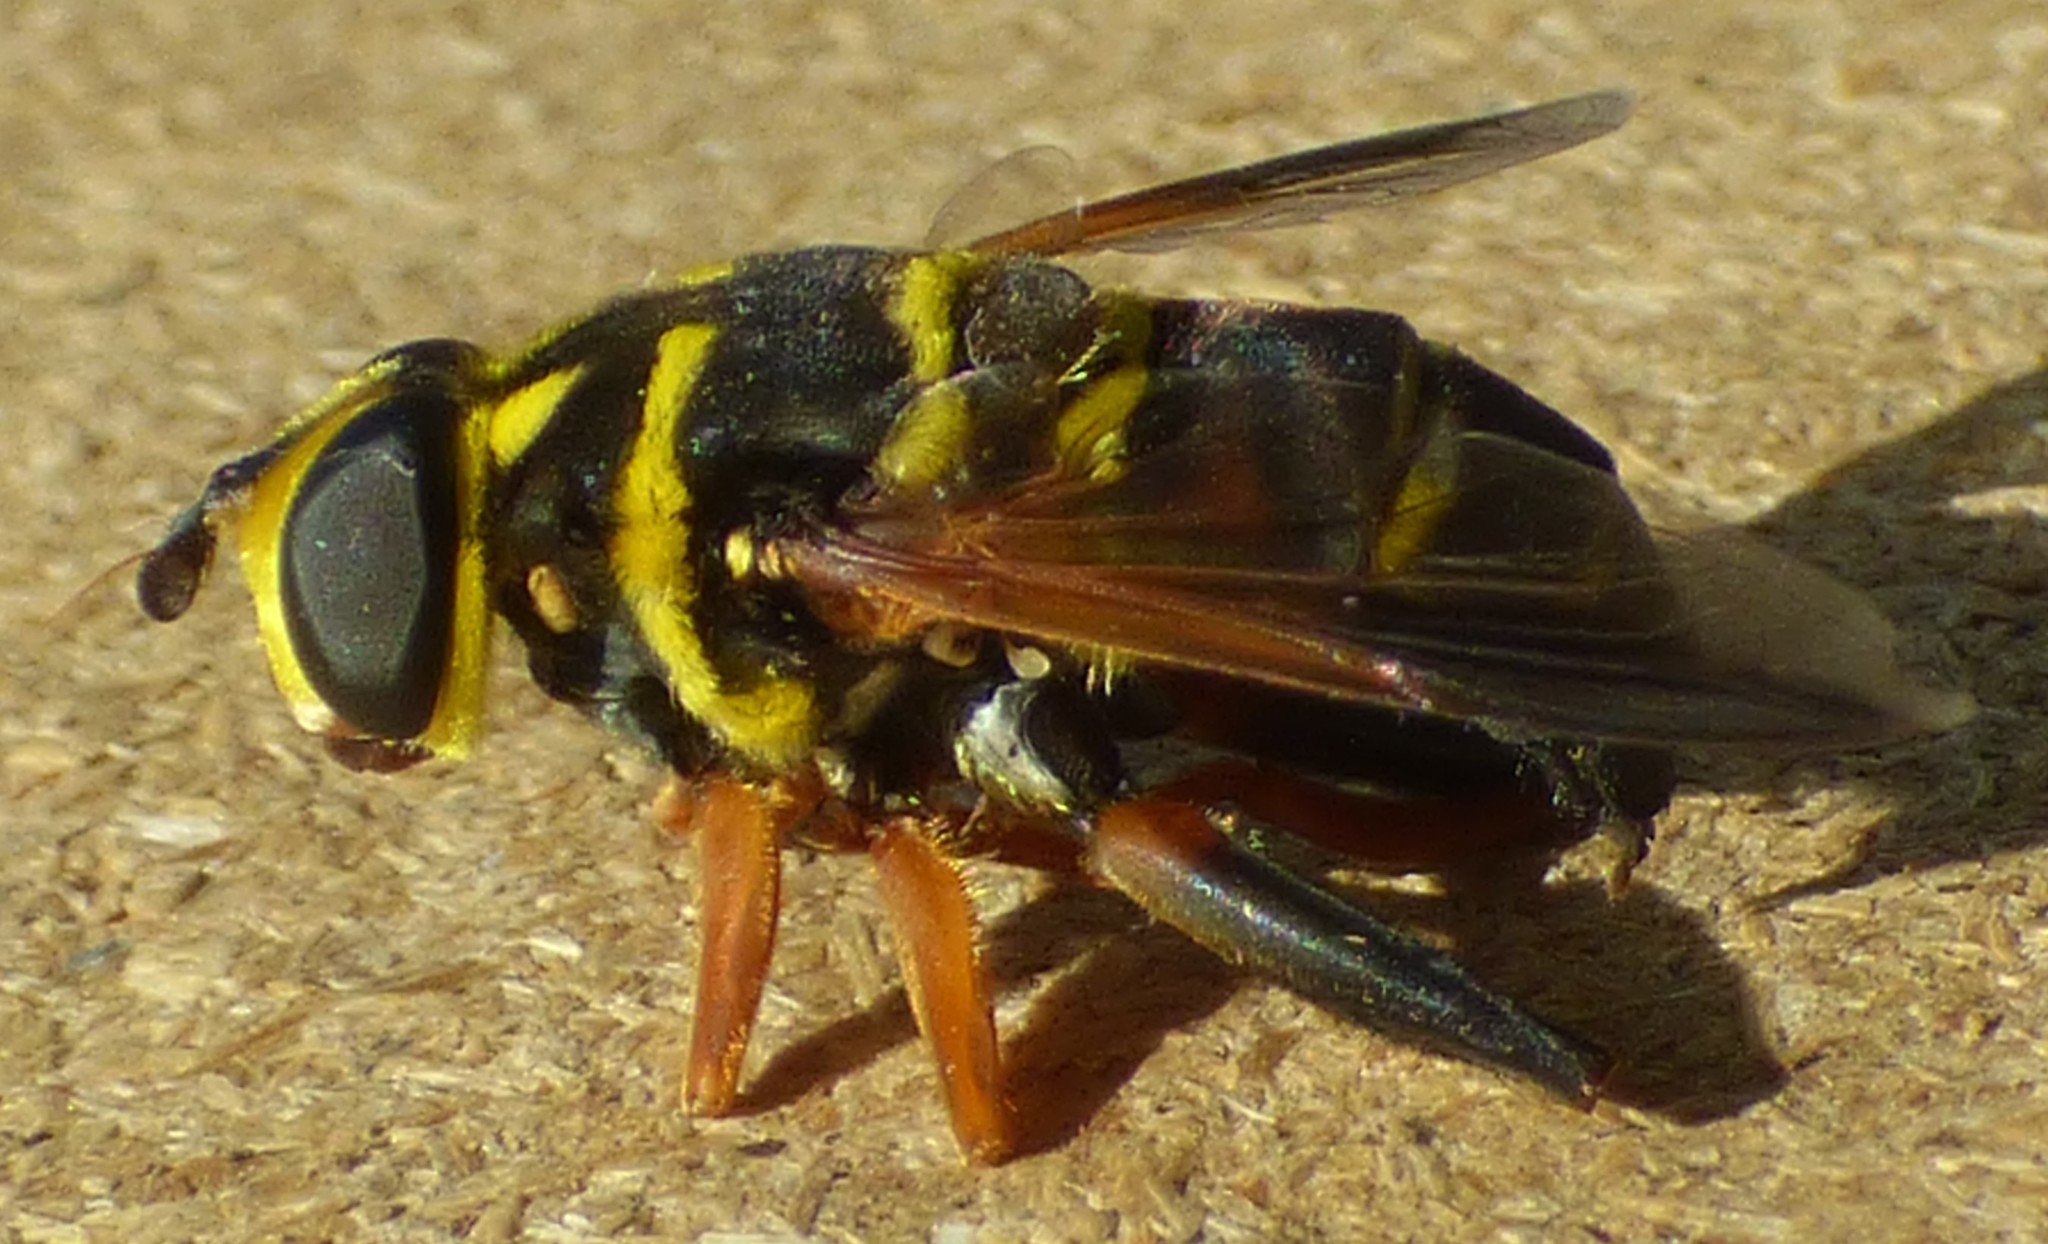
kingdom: Animalia
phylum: Arthropoda
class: Insecta
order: Diptera
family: Syrphidae
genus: Meromacrus
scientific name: Meromacrus acutus
